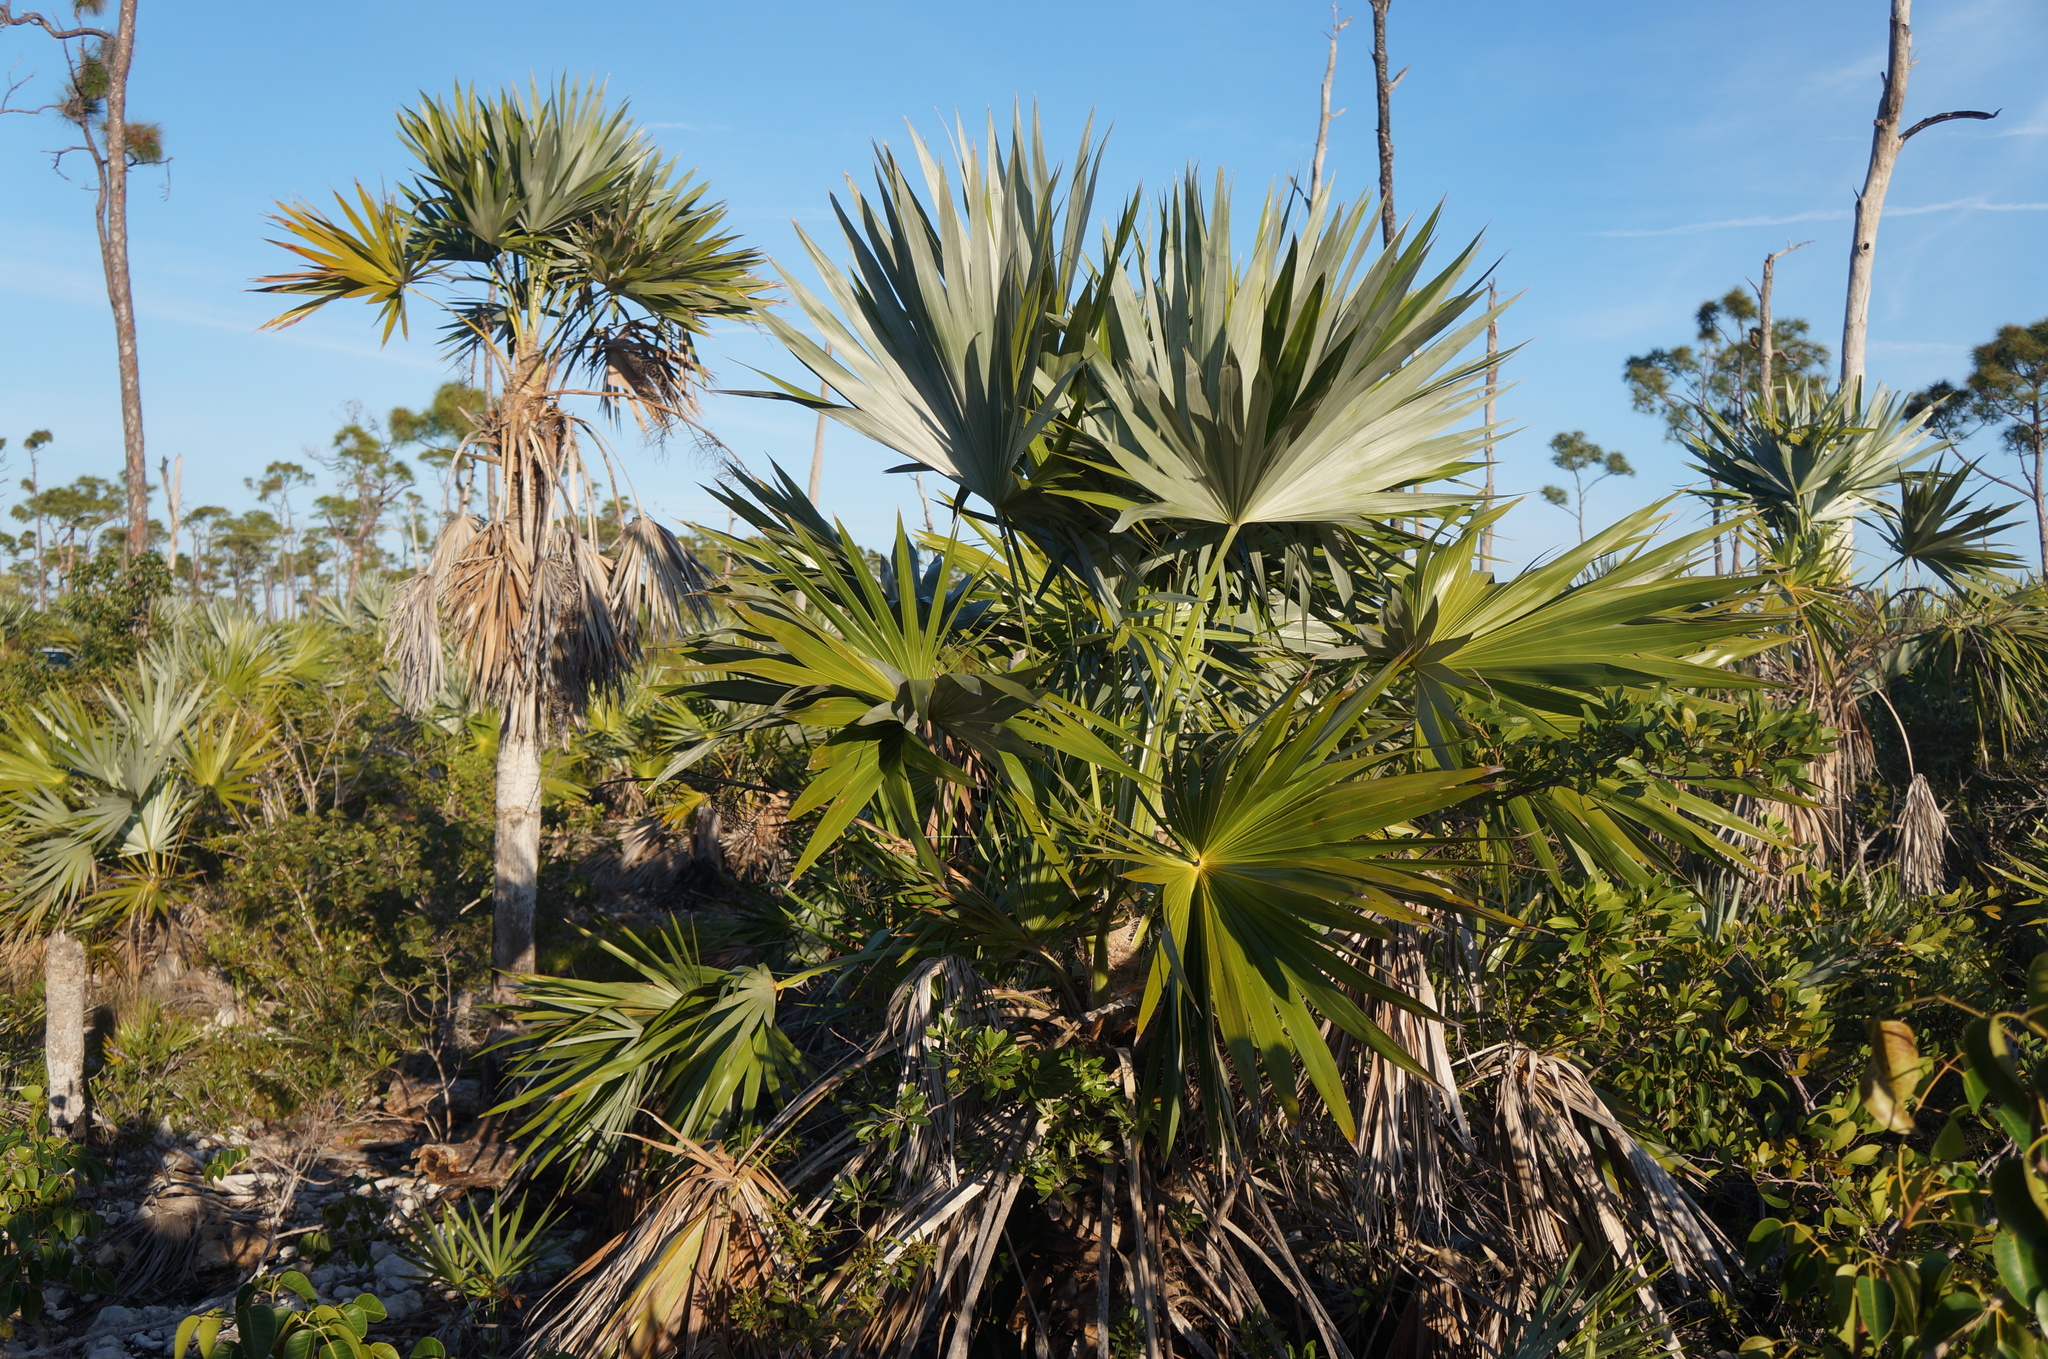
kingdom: Plantae
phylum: Tracheophyta
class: Liliopsida
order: Arecales
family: Arecaceae
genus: Leucothrinax
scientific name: Leucothrinax morrisii
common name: Key palm
